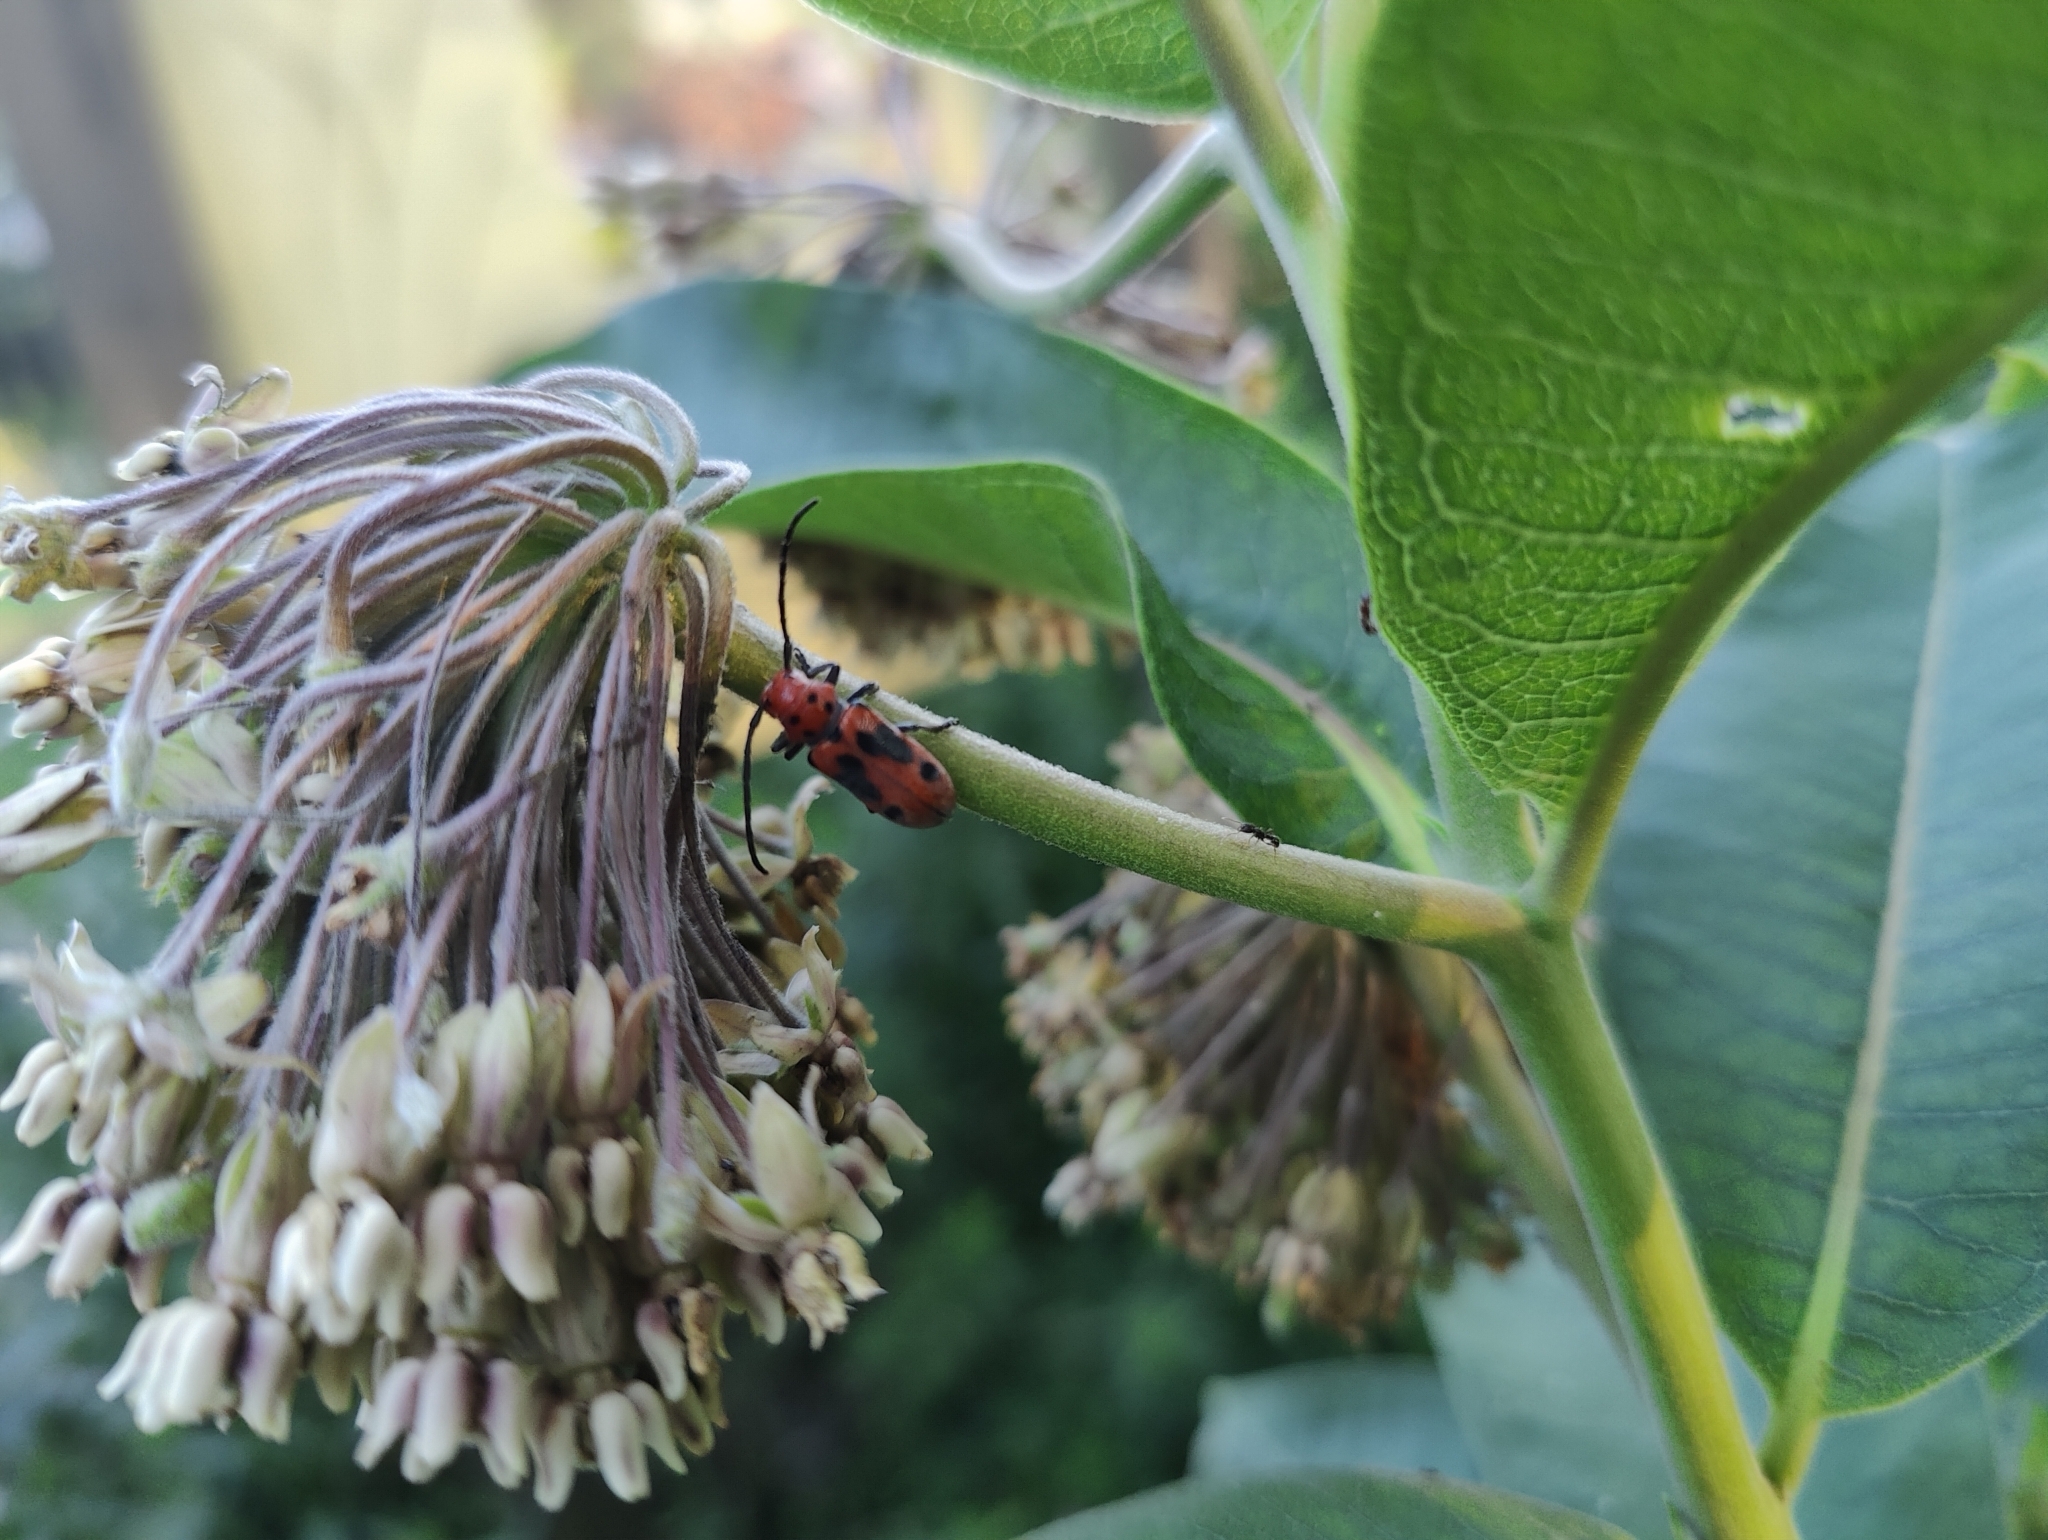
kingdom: Animalia
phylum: Arthropoda
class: Insecta
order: Coleoptera
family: Cerambycidae
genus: Tetraopes
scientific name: Tetraopes tetrophthalmus
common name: Red milkweed beetle
